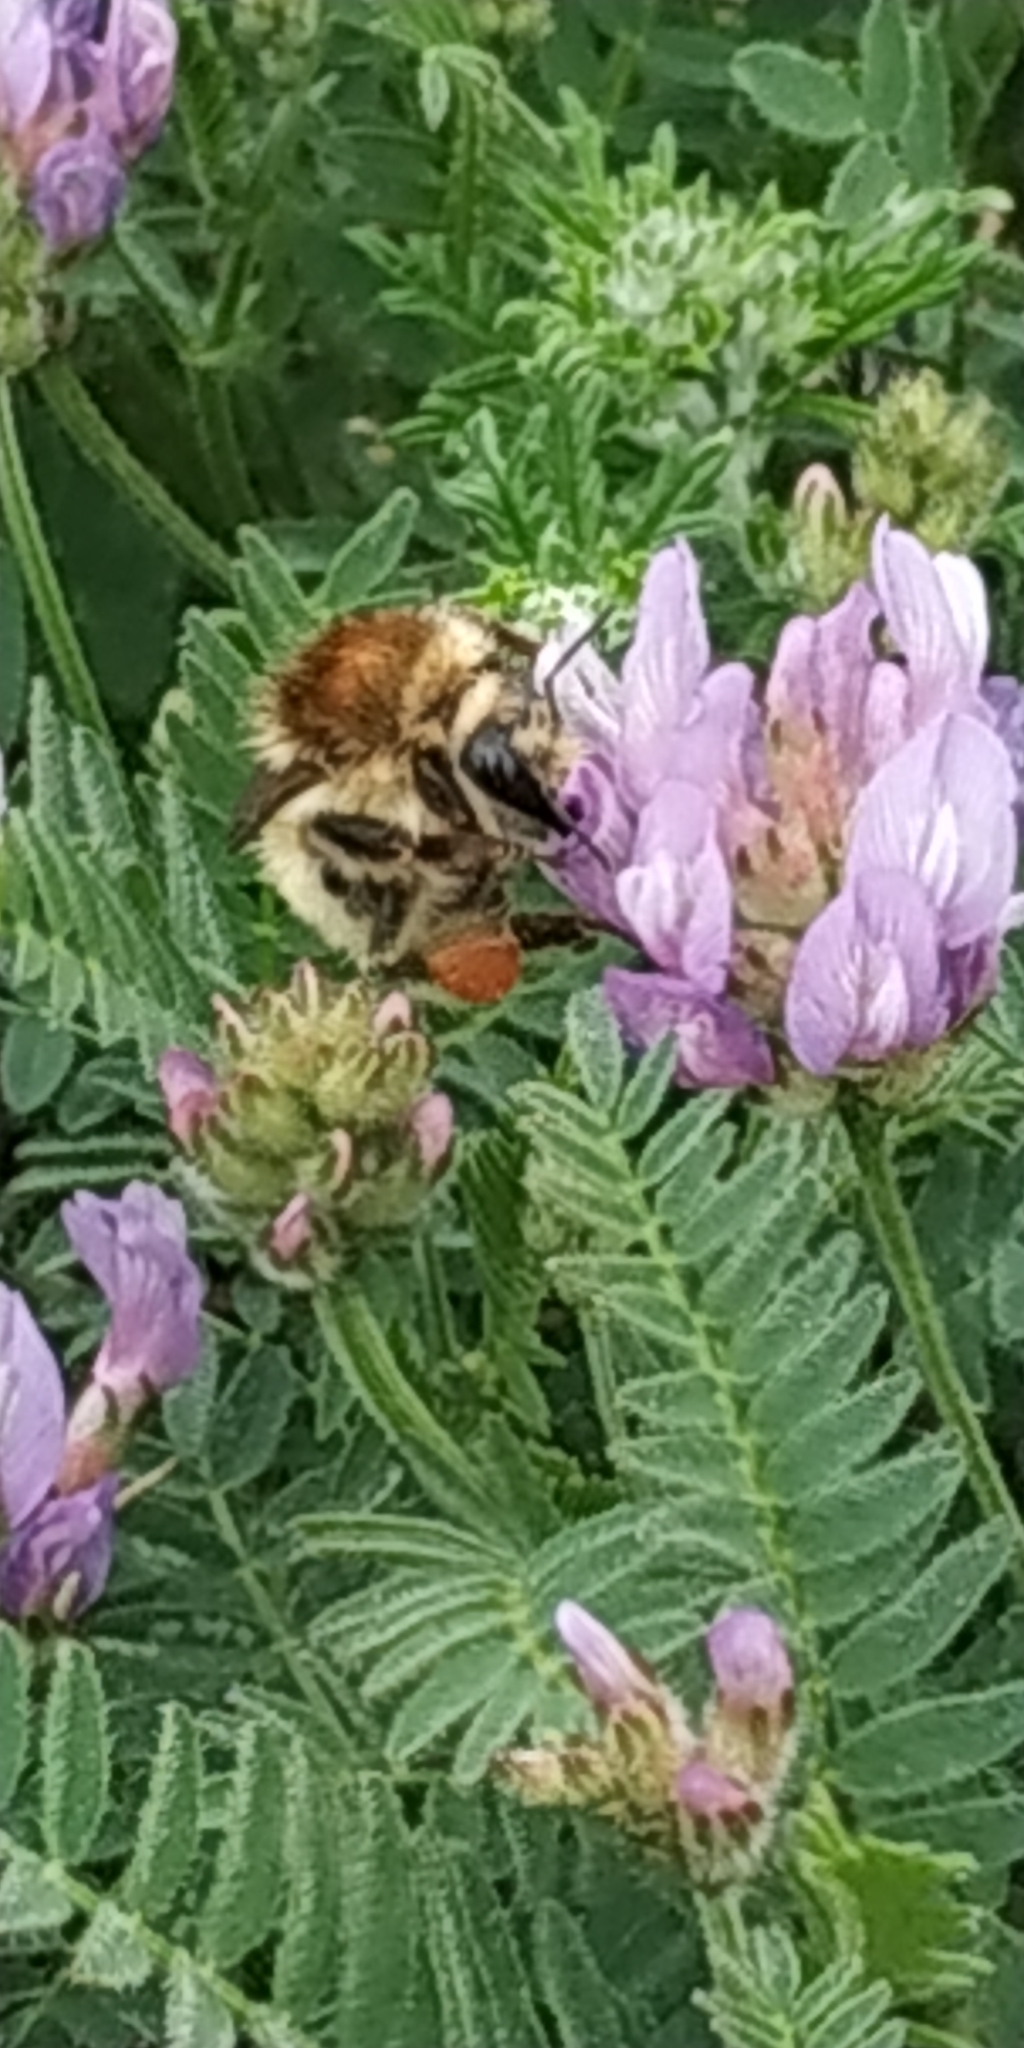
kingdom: Animalia
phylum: Arthropoda
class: Insecta
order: Hymenoptera
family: Apidae
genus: Bombus
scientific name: Bombus humilis
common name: Brown-banded carder-bee
